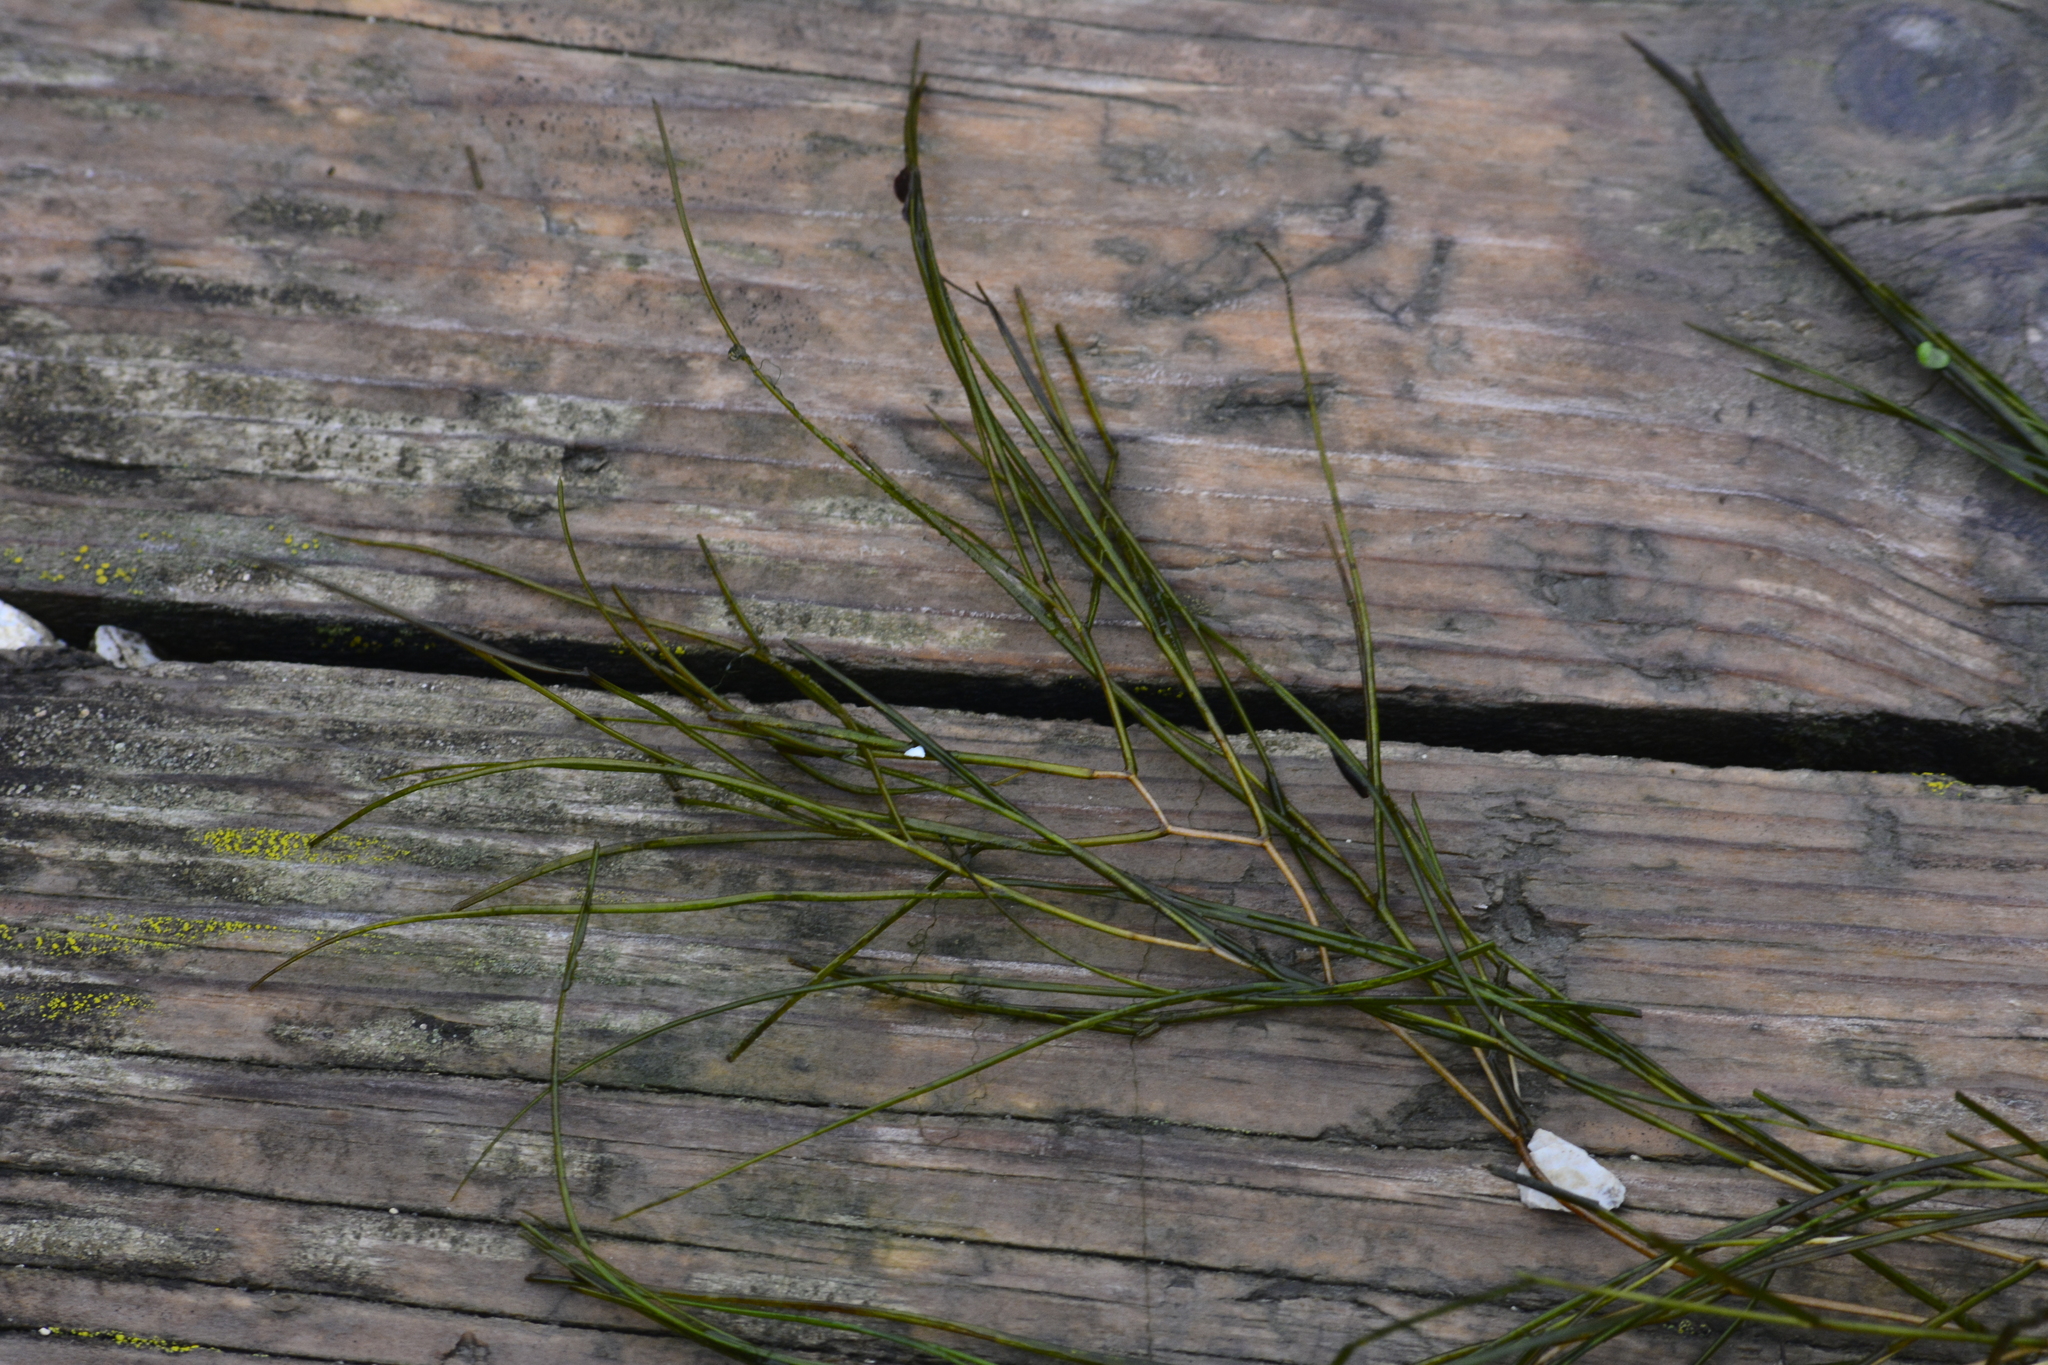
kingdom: Plantae
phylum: Tracheophyta
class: Liliopsida
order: Alismatales
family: Potamogetonaceae
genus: Stuckenia
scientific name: Stuckenia pectinata
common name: Sago pondweed
